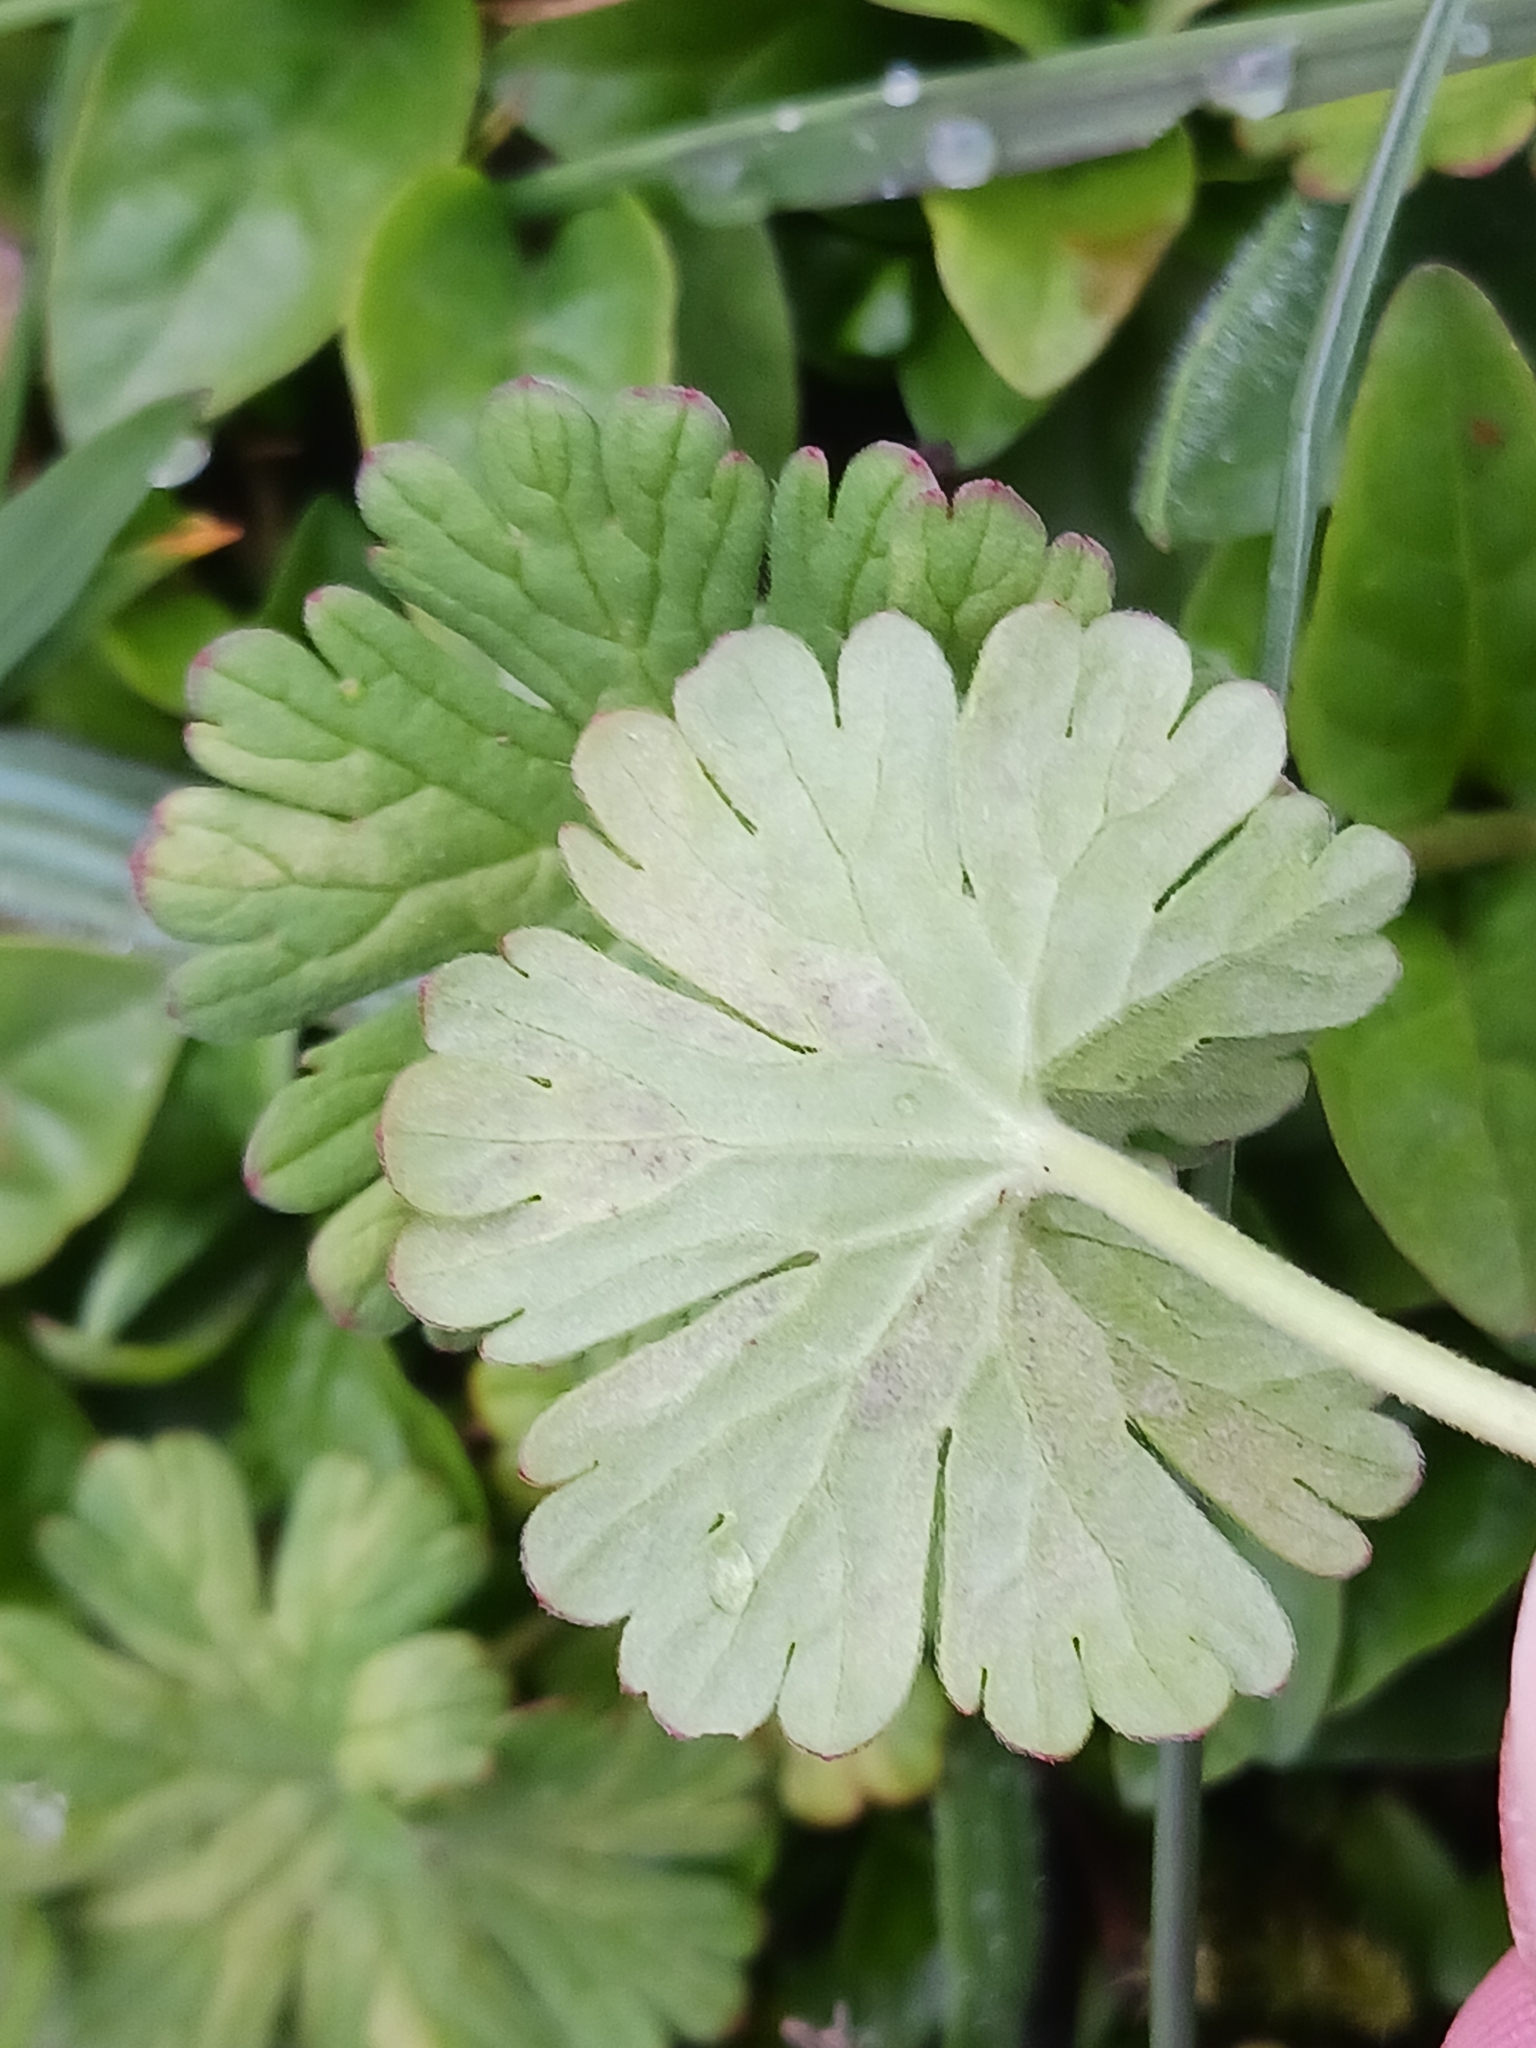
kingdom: Chromista
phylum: Oomycota
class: Peronosporea
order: Peronosporales
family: Peronosporaceae
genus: Peronospora
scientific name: Peronospora conglomerata
